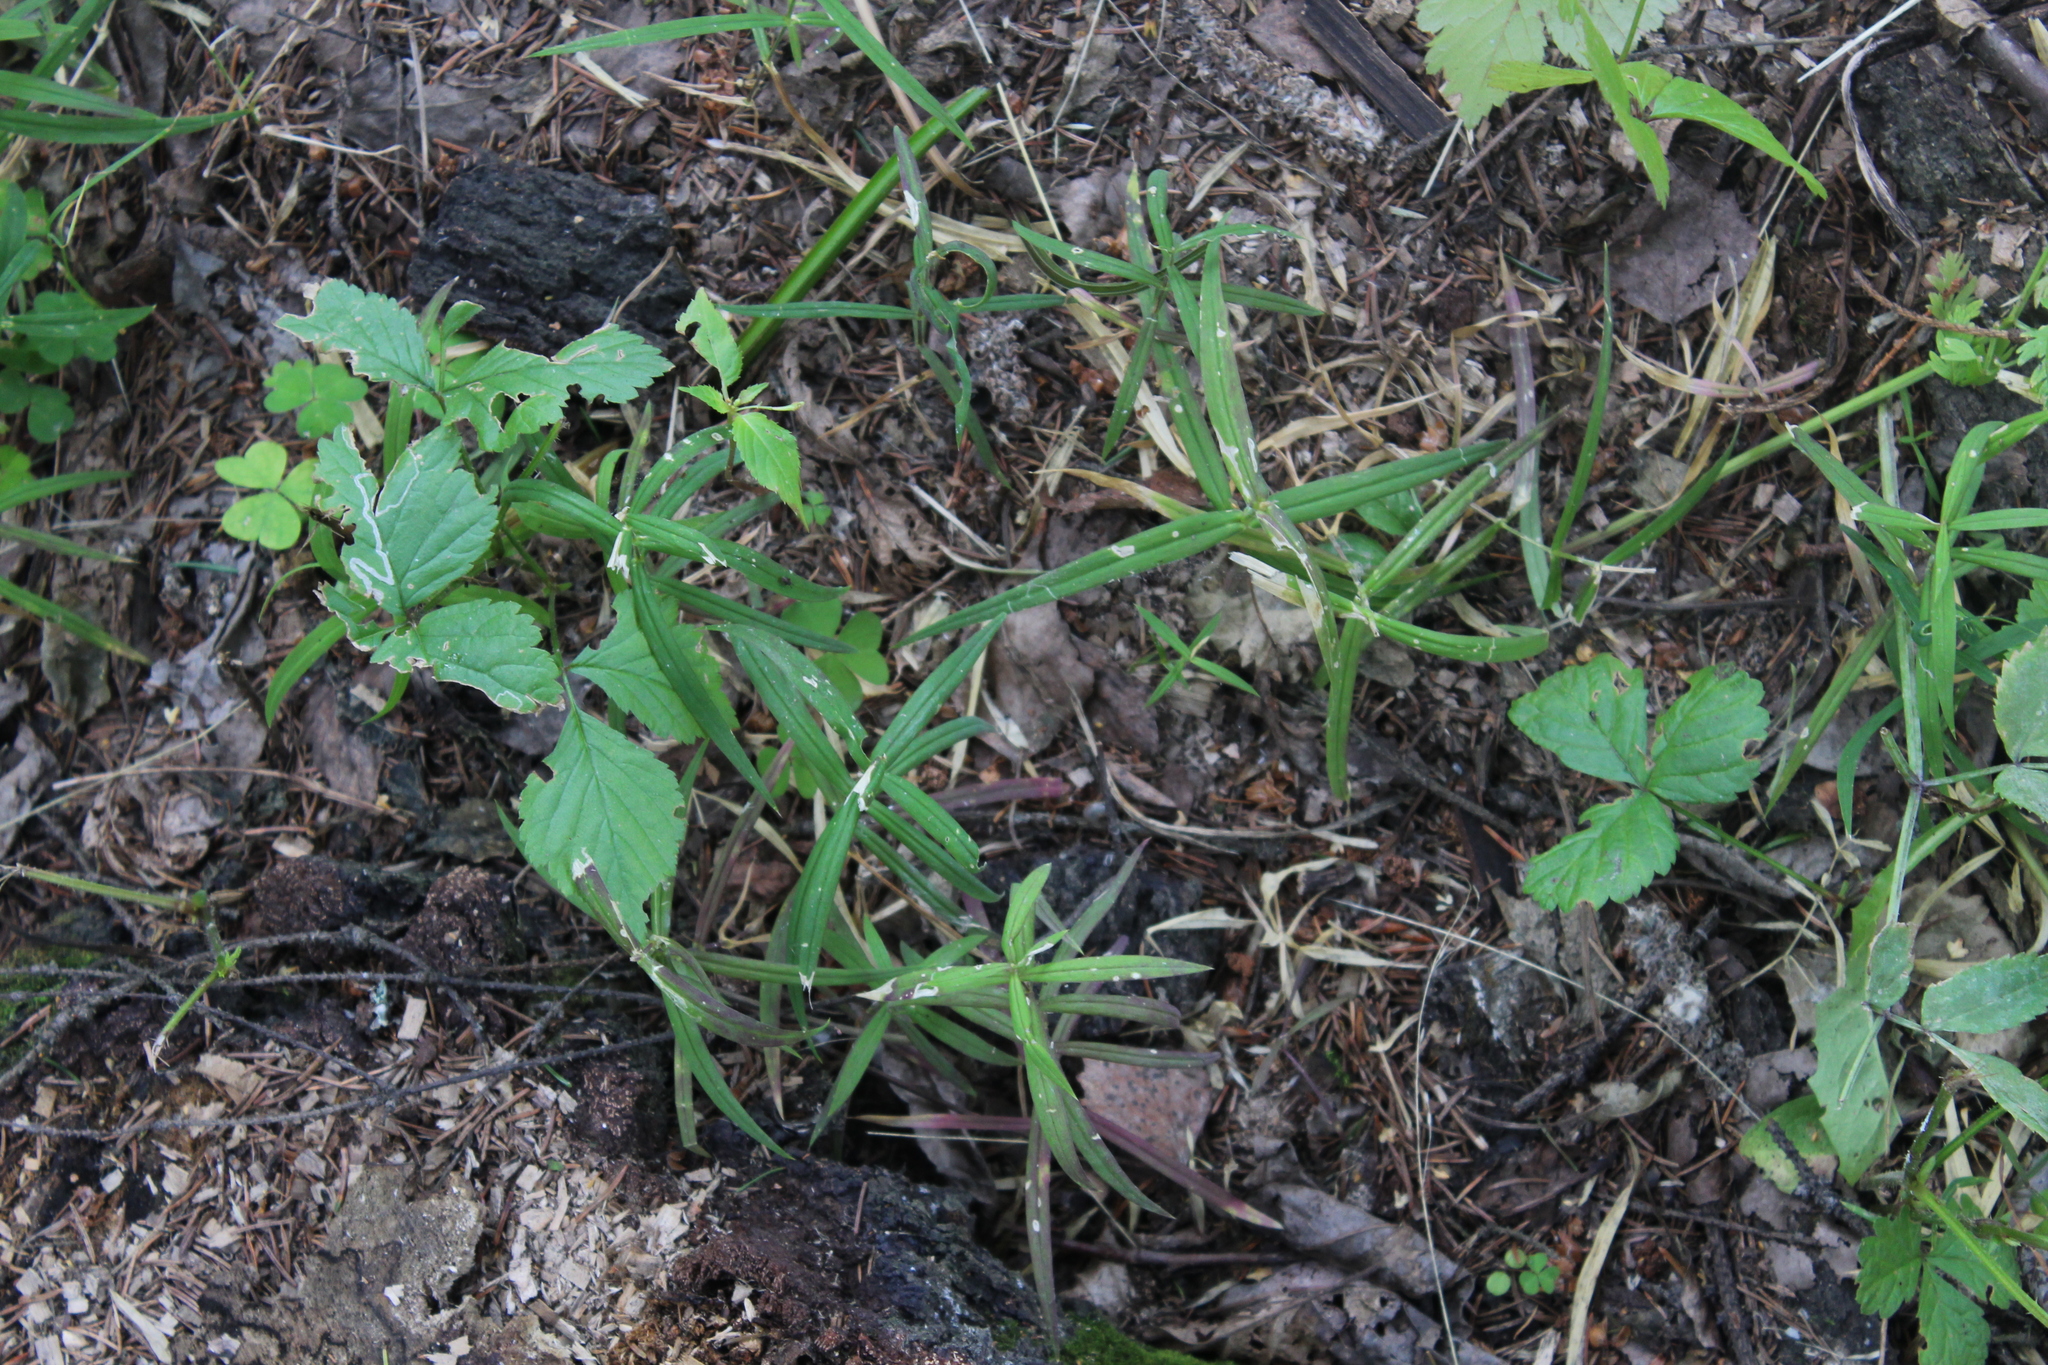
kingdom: Plantae
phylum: Tracheophyta
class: Magnoliopsida
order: Caryophyllales
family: Caryophyllaceae
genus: Rabelera
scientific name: Rabelera holostea
